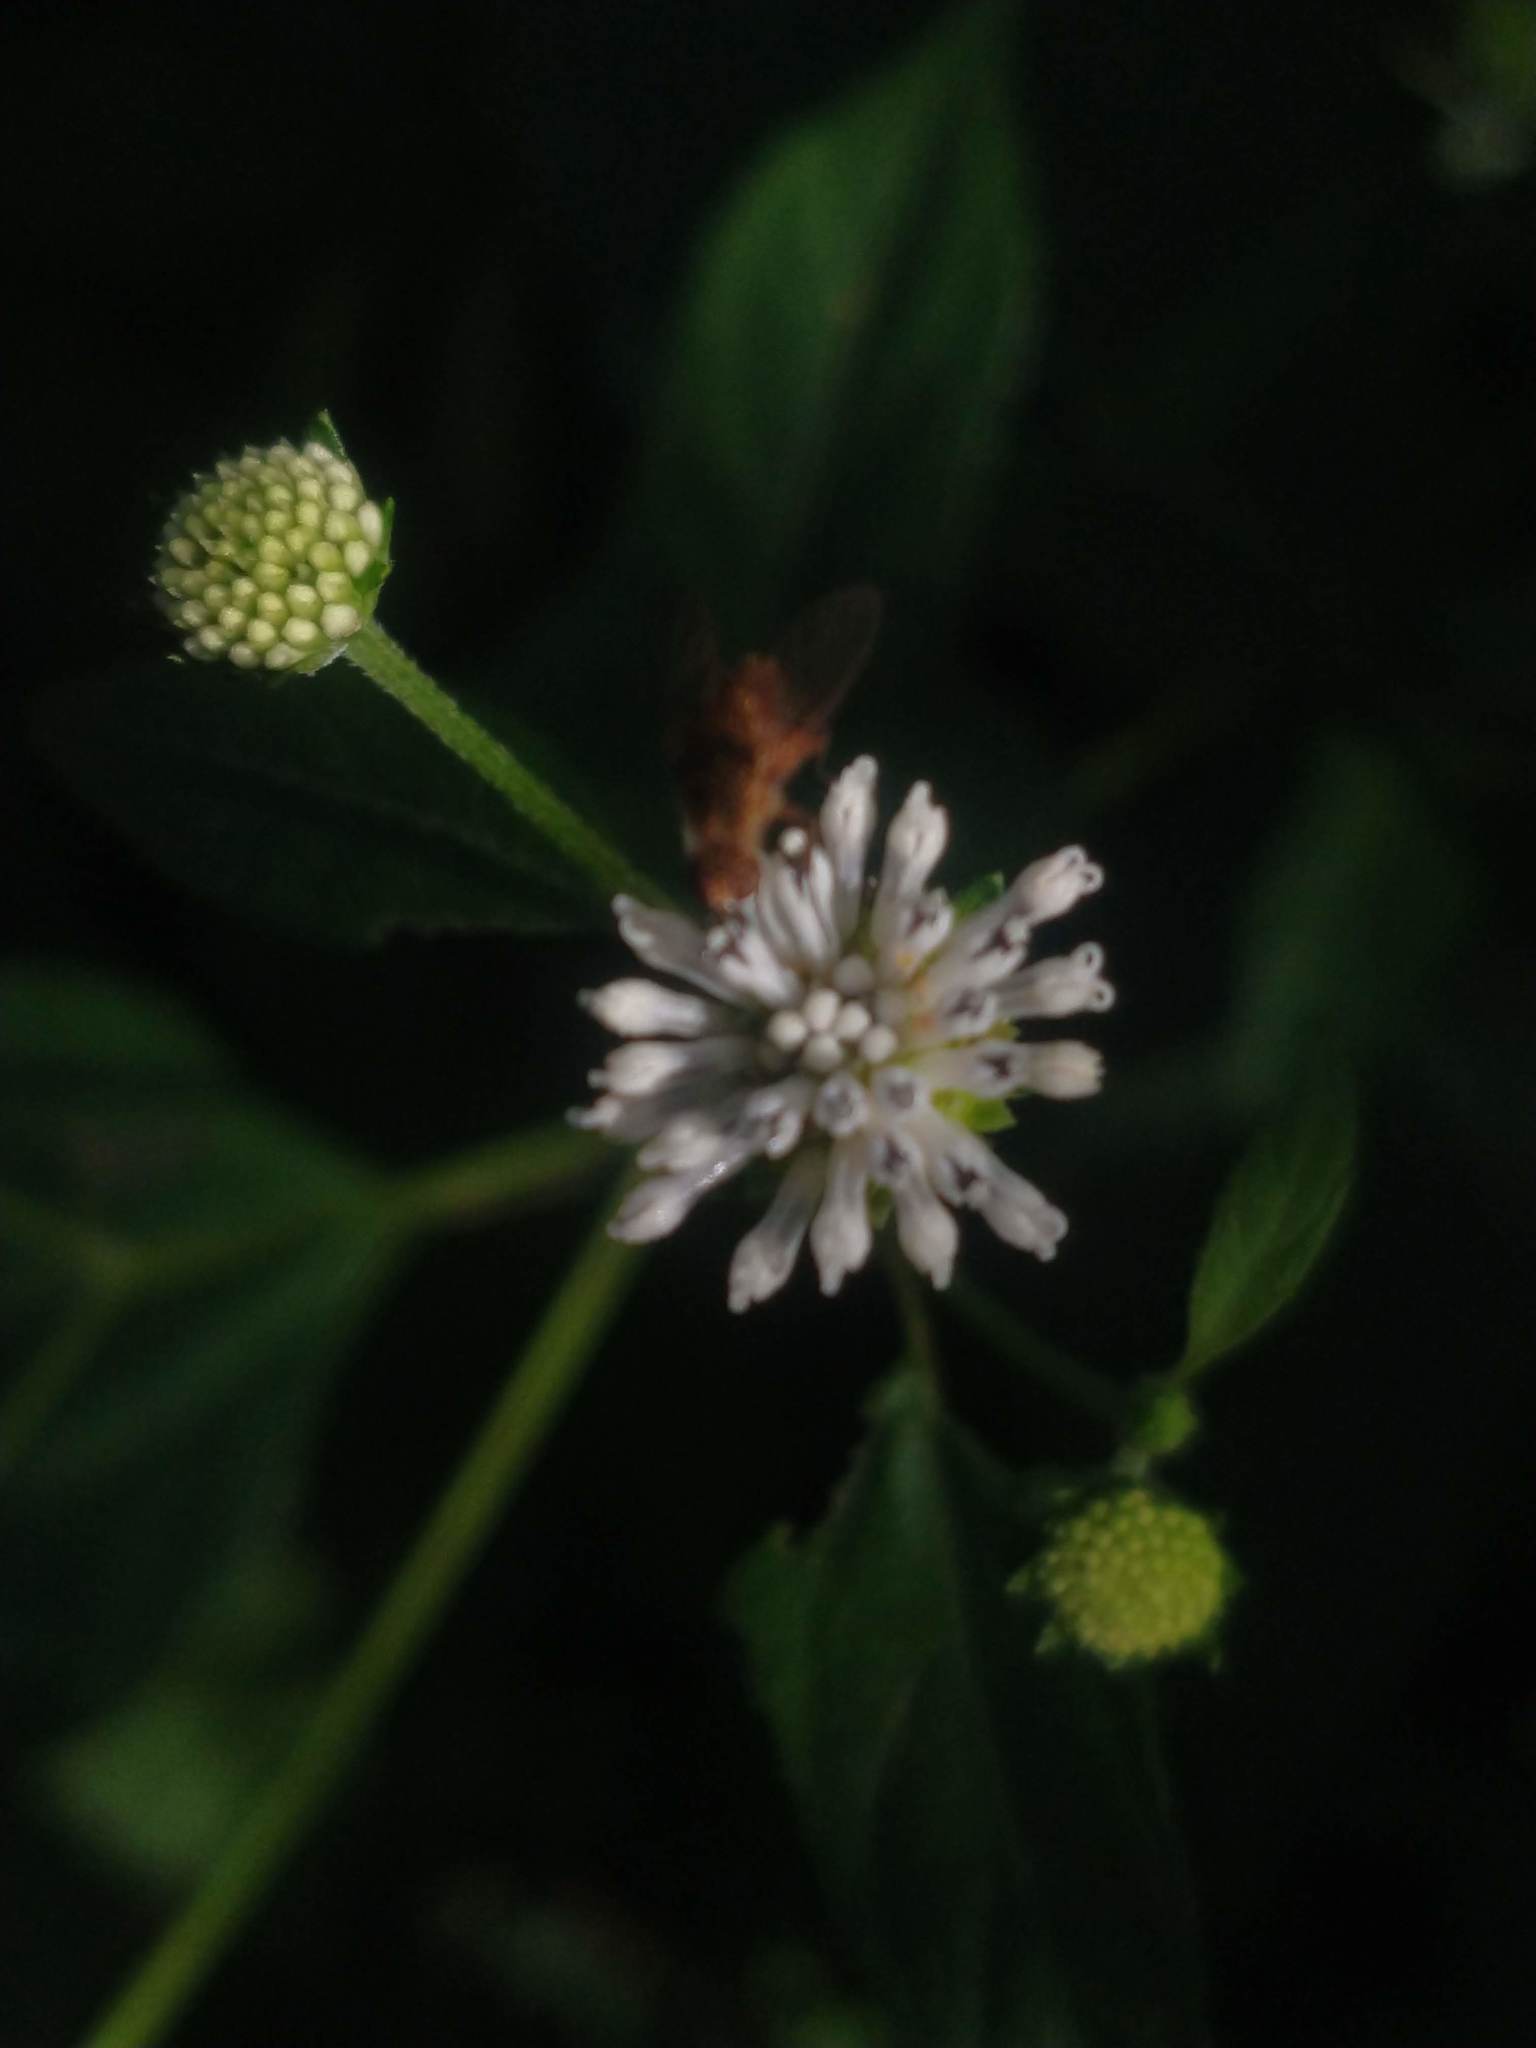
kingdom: Plantae
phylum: Tracheophyta
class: Magnoliopsida
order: Asterales
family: Asteraceae
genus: Melanthera
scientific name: Melanthera nivea
